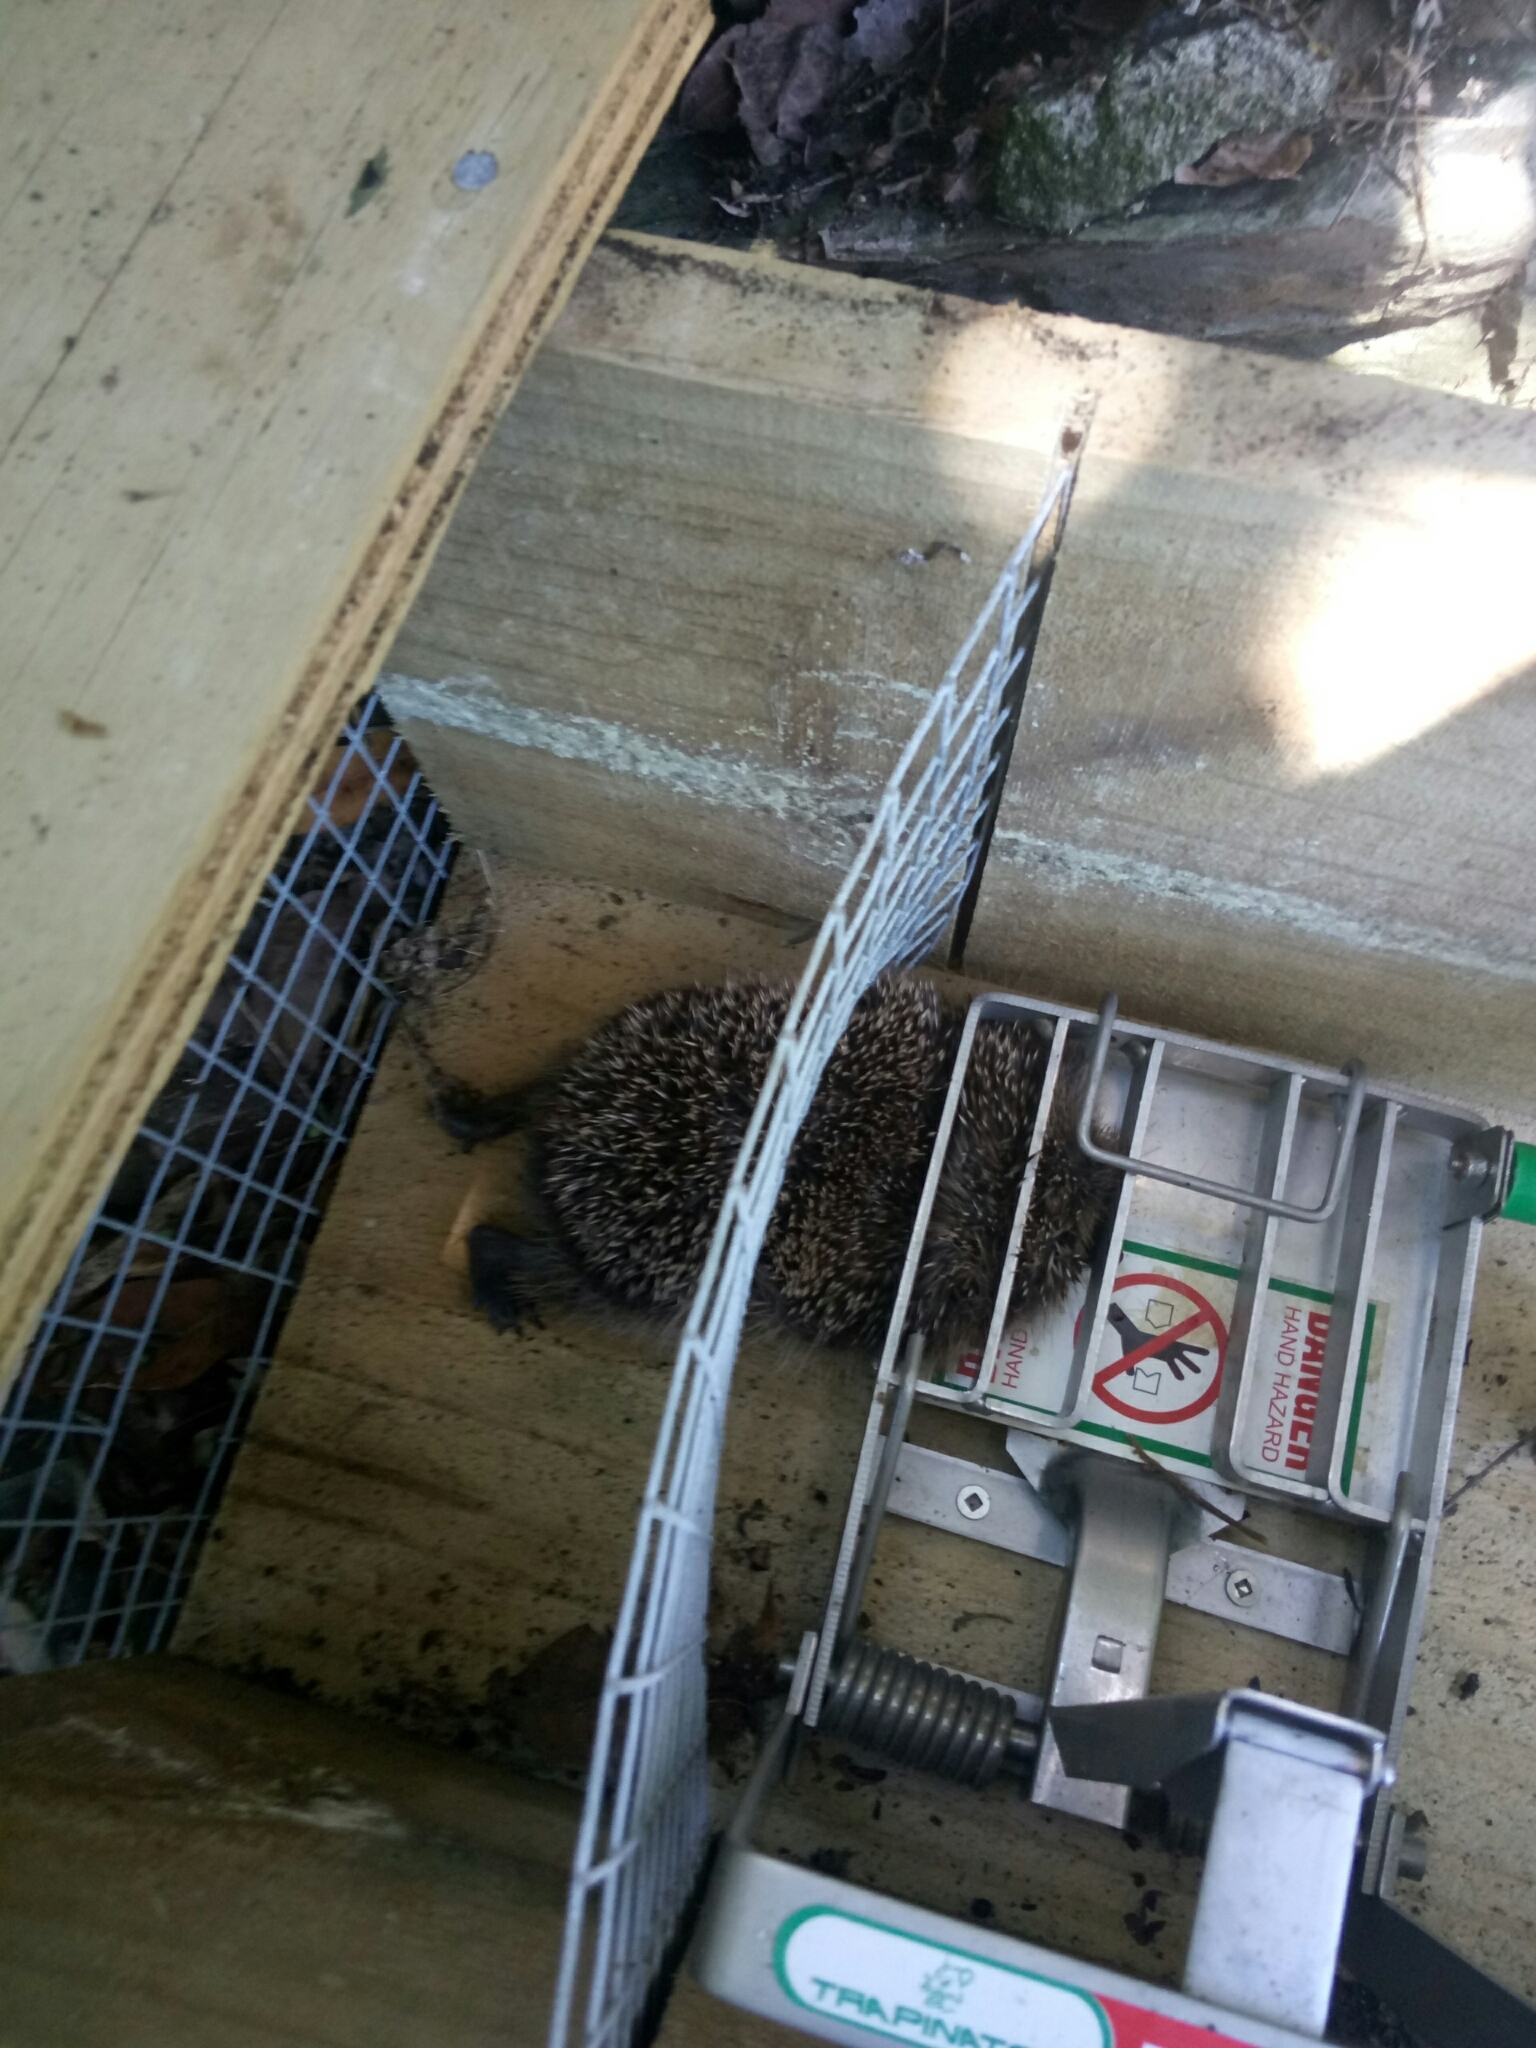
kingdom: Animalia
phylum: Chordata
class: Mammalia
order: Erinaceomorpha
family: Erinaceidae
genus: Erinaceus
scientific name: Erinaceus europaeus
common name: West european hedgehog
